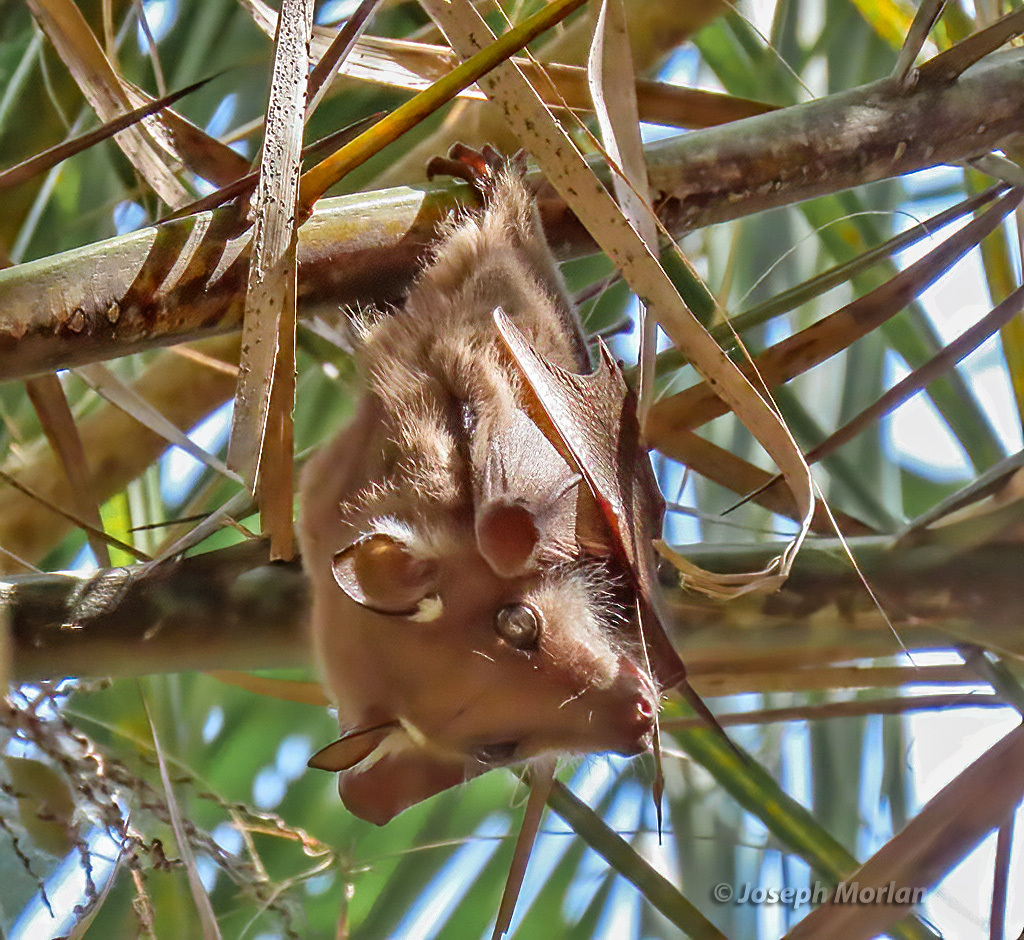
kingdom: Animalia
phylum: Chordata
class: Mammalia
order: Chiroptera
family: Pteropodidae
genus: Epomophorus
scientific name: Epomophorus crypturus
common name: Smaller epauletted fruit bat
